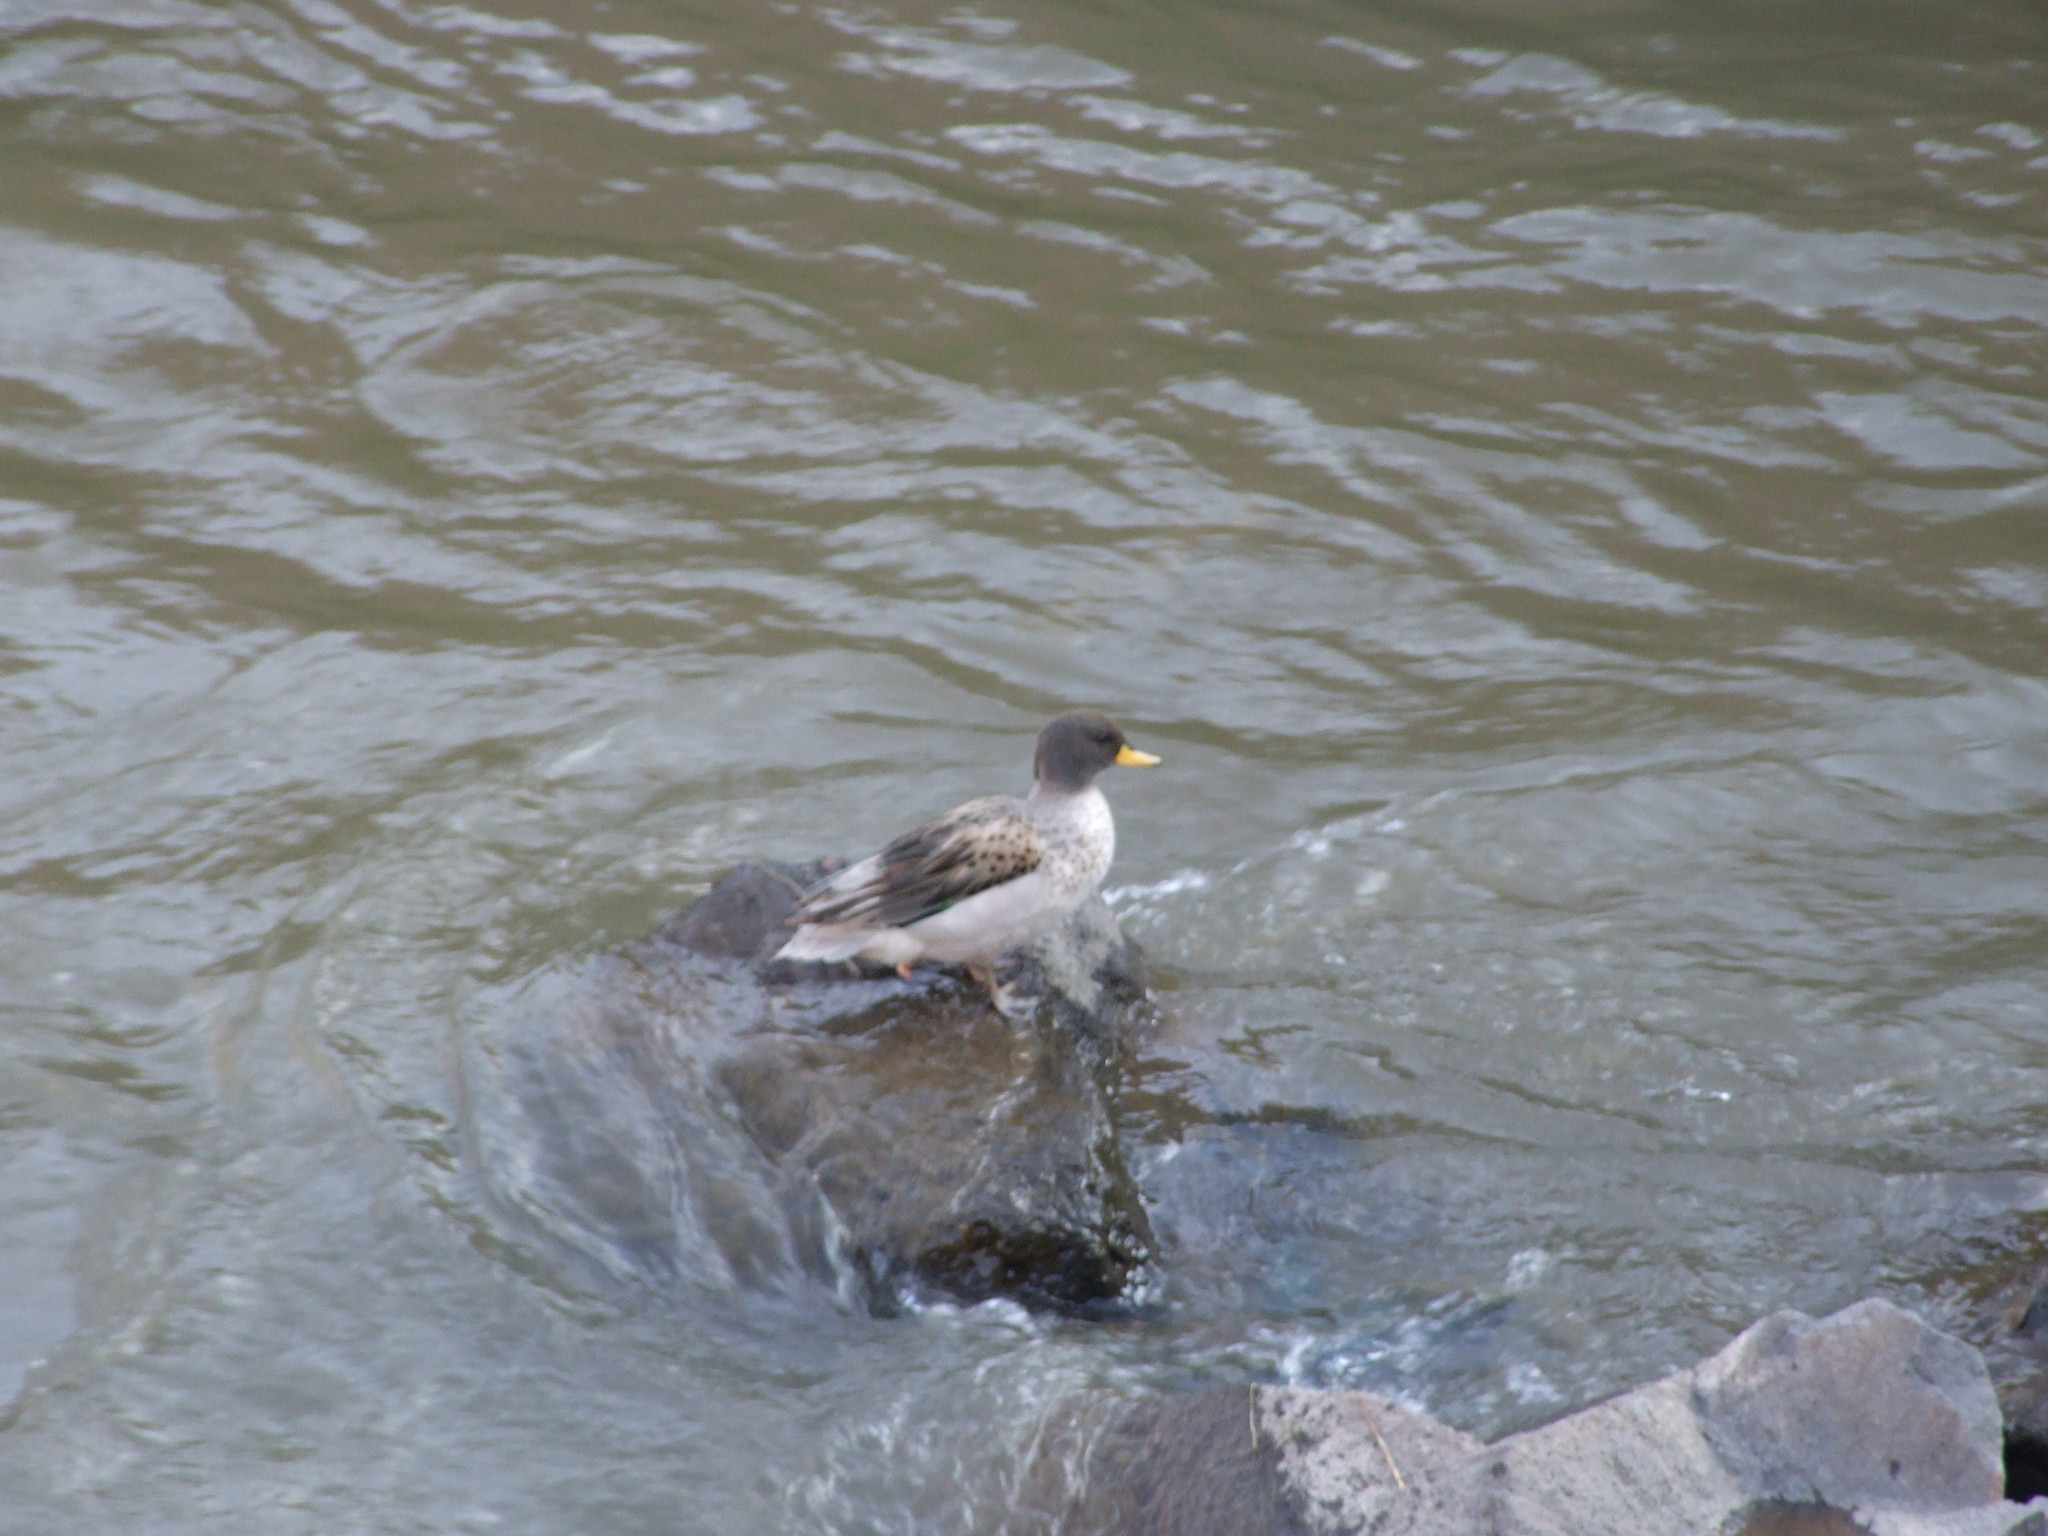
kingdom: Animalia
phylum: Chordata
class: Aves
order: Anseriformes
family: Anatidae
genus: Anas
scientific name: Anas flavirostris
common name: Yellow-billed teal
